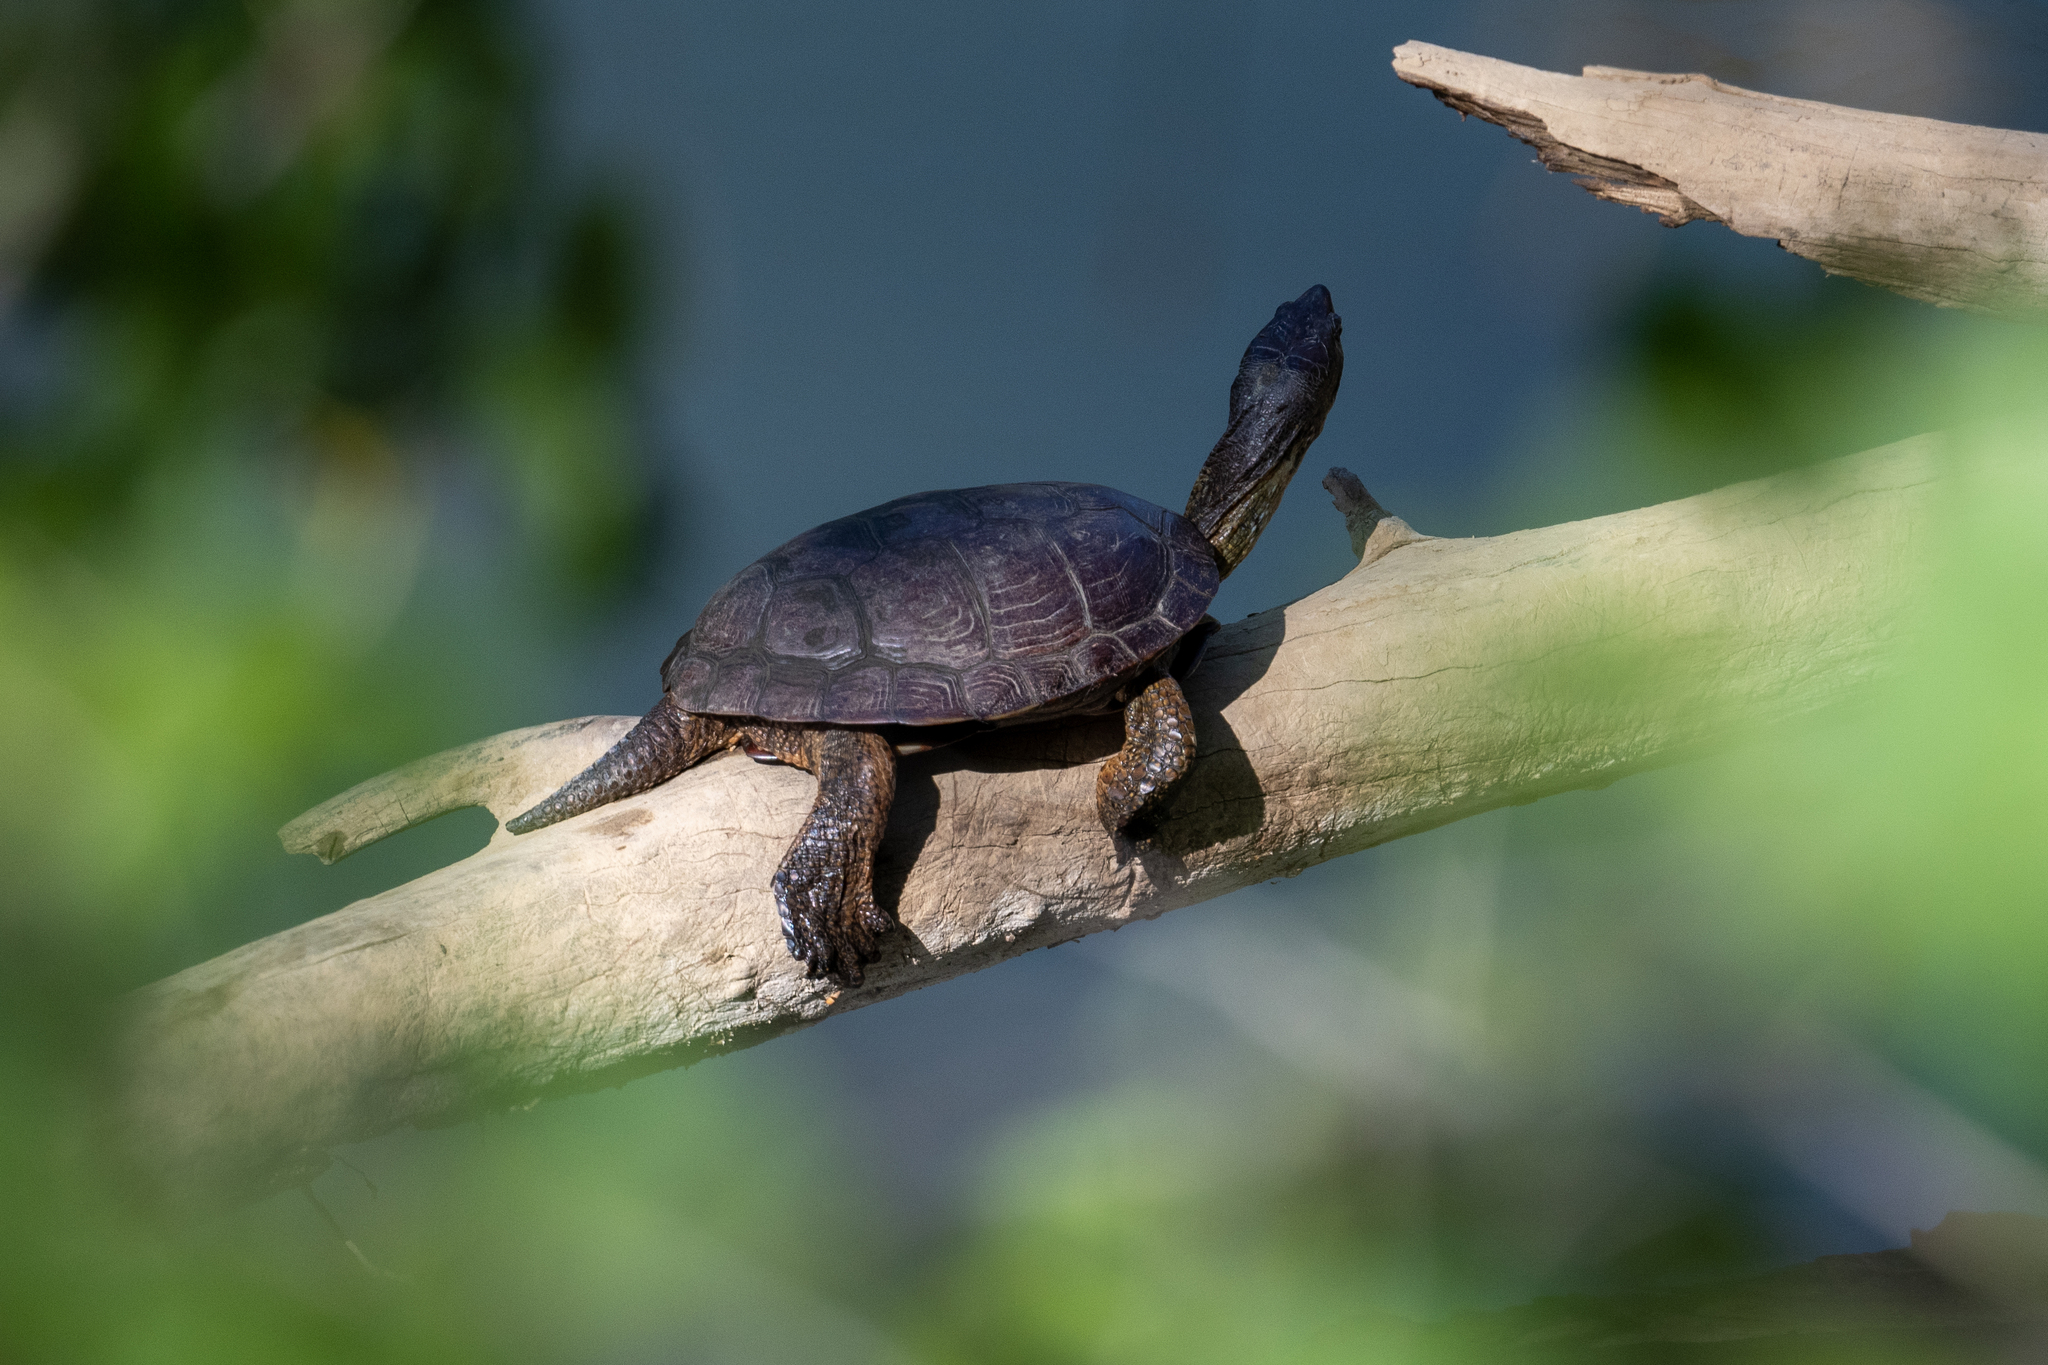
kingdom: Animalia
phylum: Chordata
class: Testudines
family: Emydidae
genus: Actinemys
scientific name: Actinemys marmorata
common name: Western pond turtle
